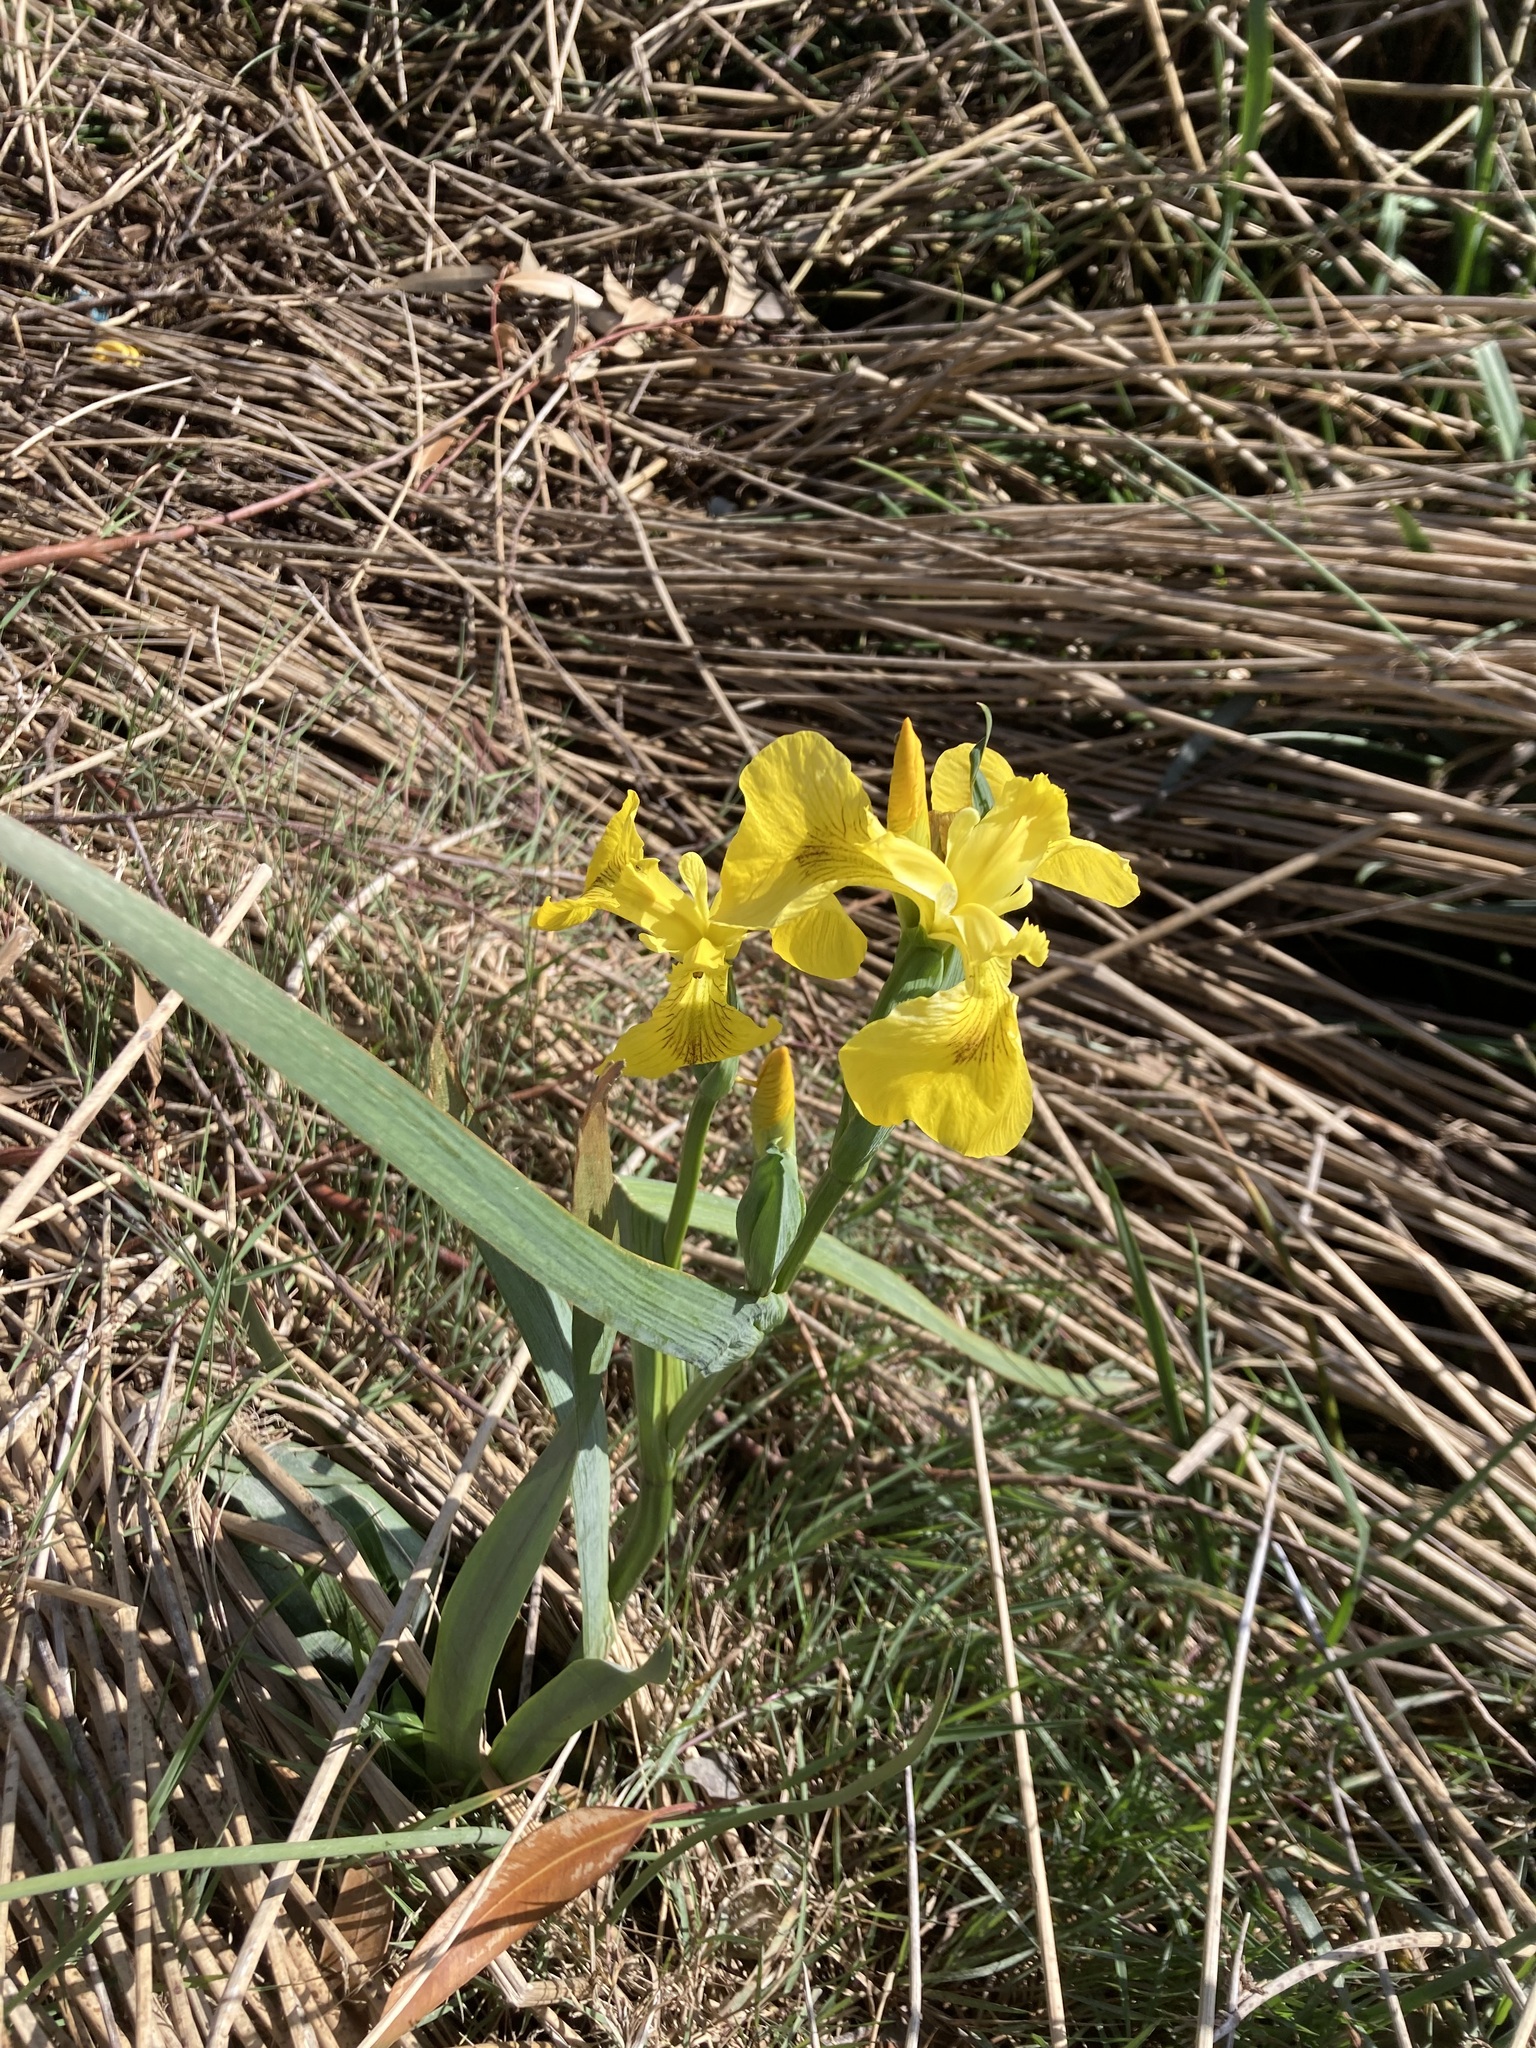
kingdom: Plantae
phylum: Tracheophyta
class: Liliopsida
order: Asparagales
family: Iridaceae
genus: Iris
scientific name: Iris pseudacorus
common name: Yellow flag
